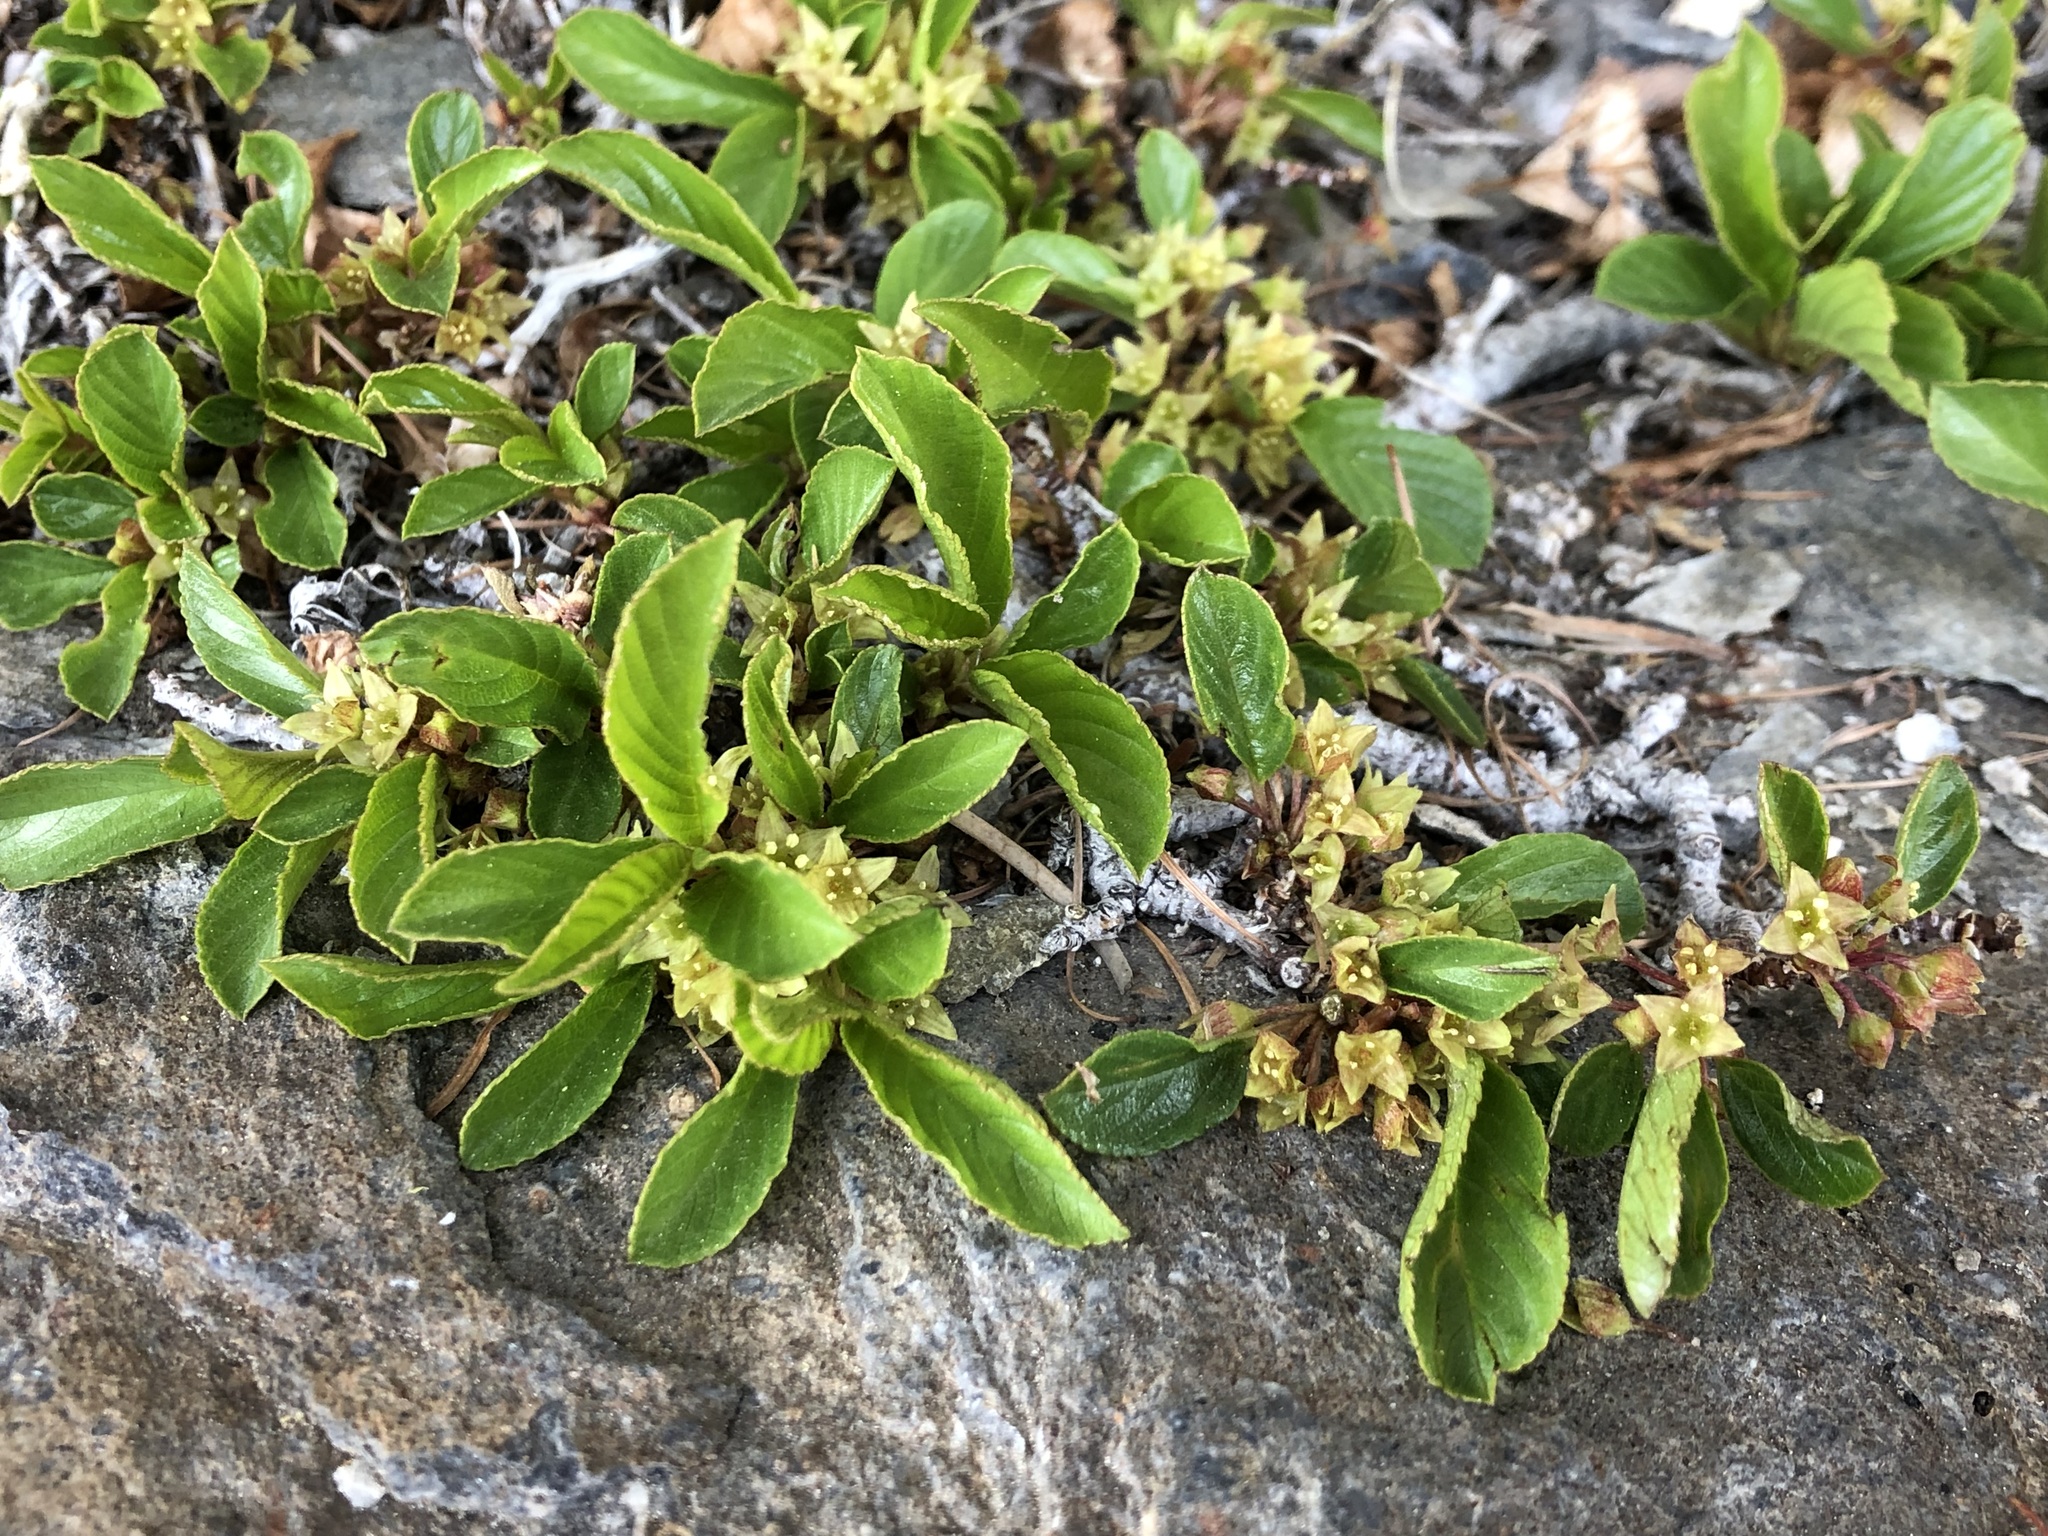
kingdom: Plantae
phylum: Tracheophyta
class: Magnoliopsida
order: Rosales
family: Rhamnaceae
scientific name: Rhamnaceae
